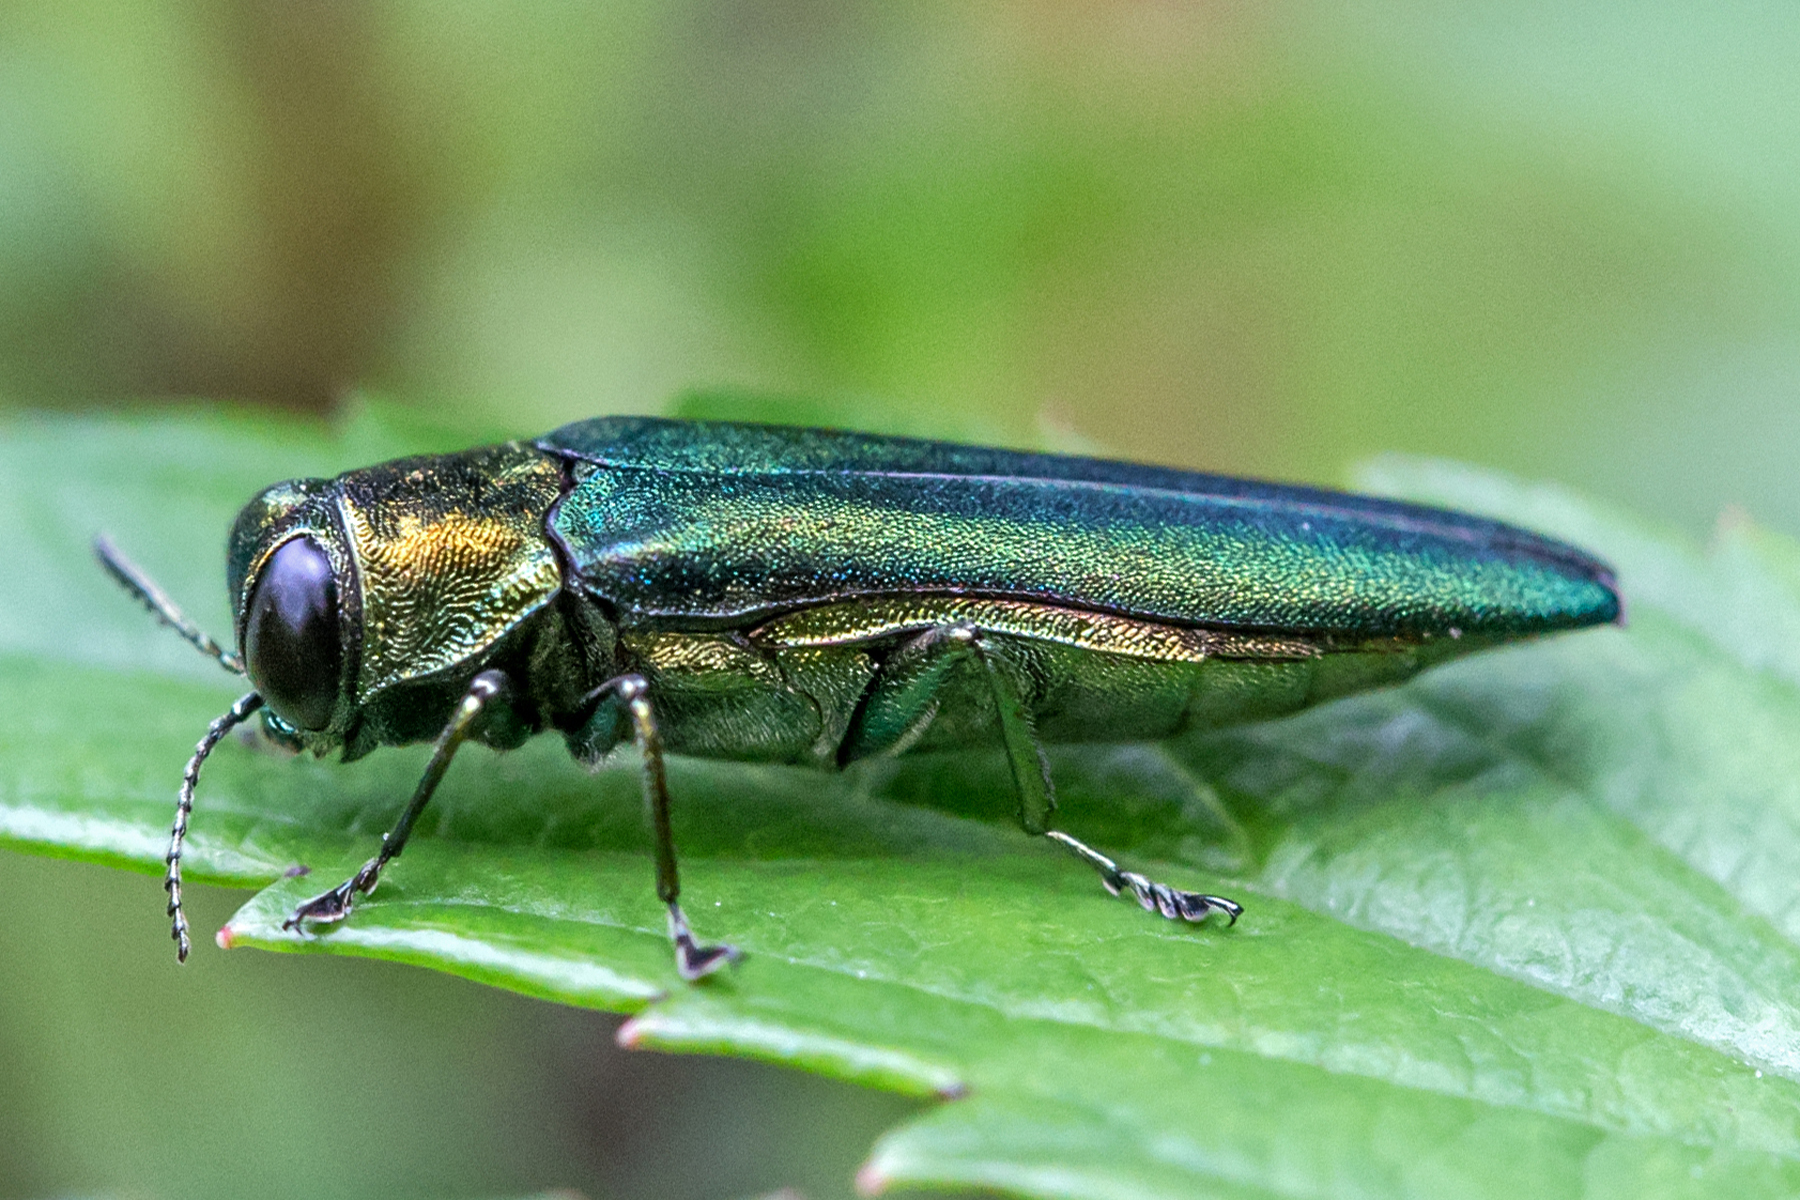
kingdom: Animalia
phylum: Arthropoda
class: Insecta
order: Coleoptera
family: Buprestidae
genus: Agrilus
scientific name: Agrilus planipennis
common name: Emerald ash borer
